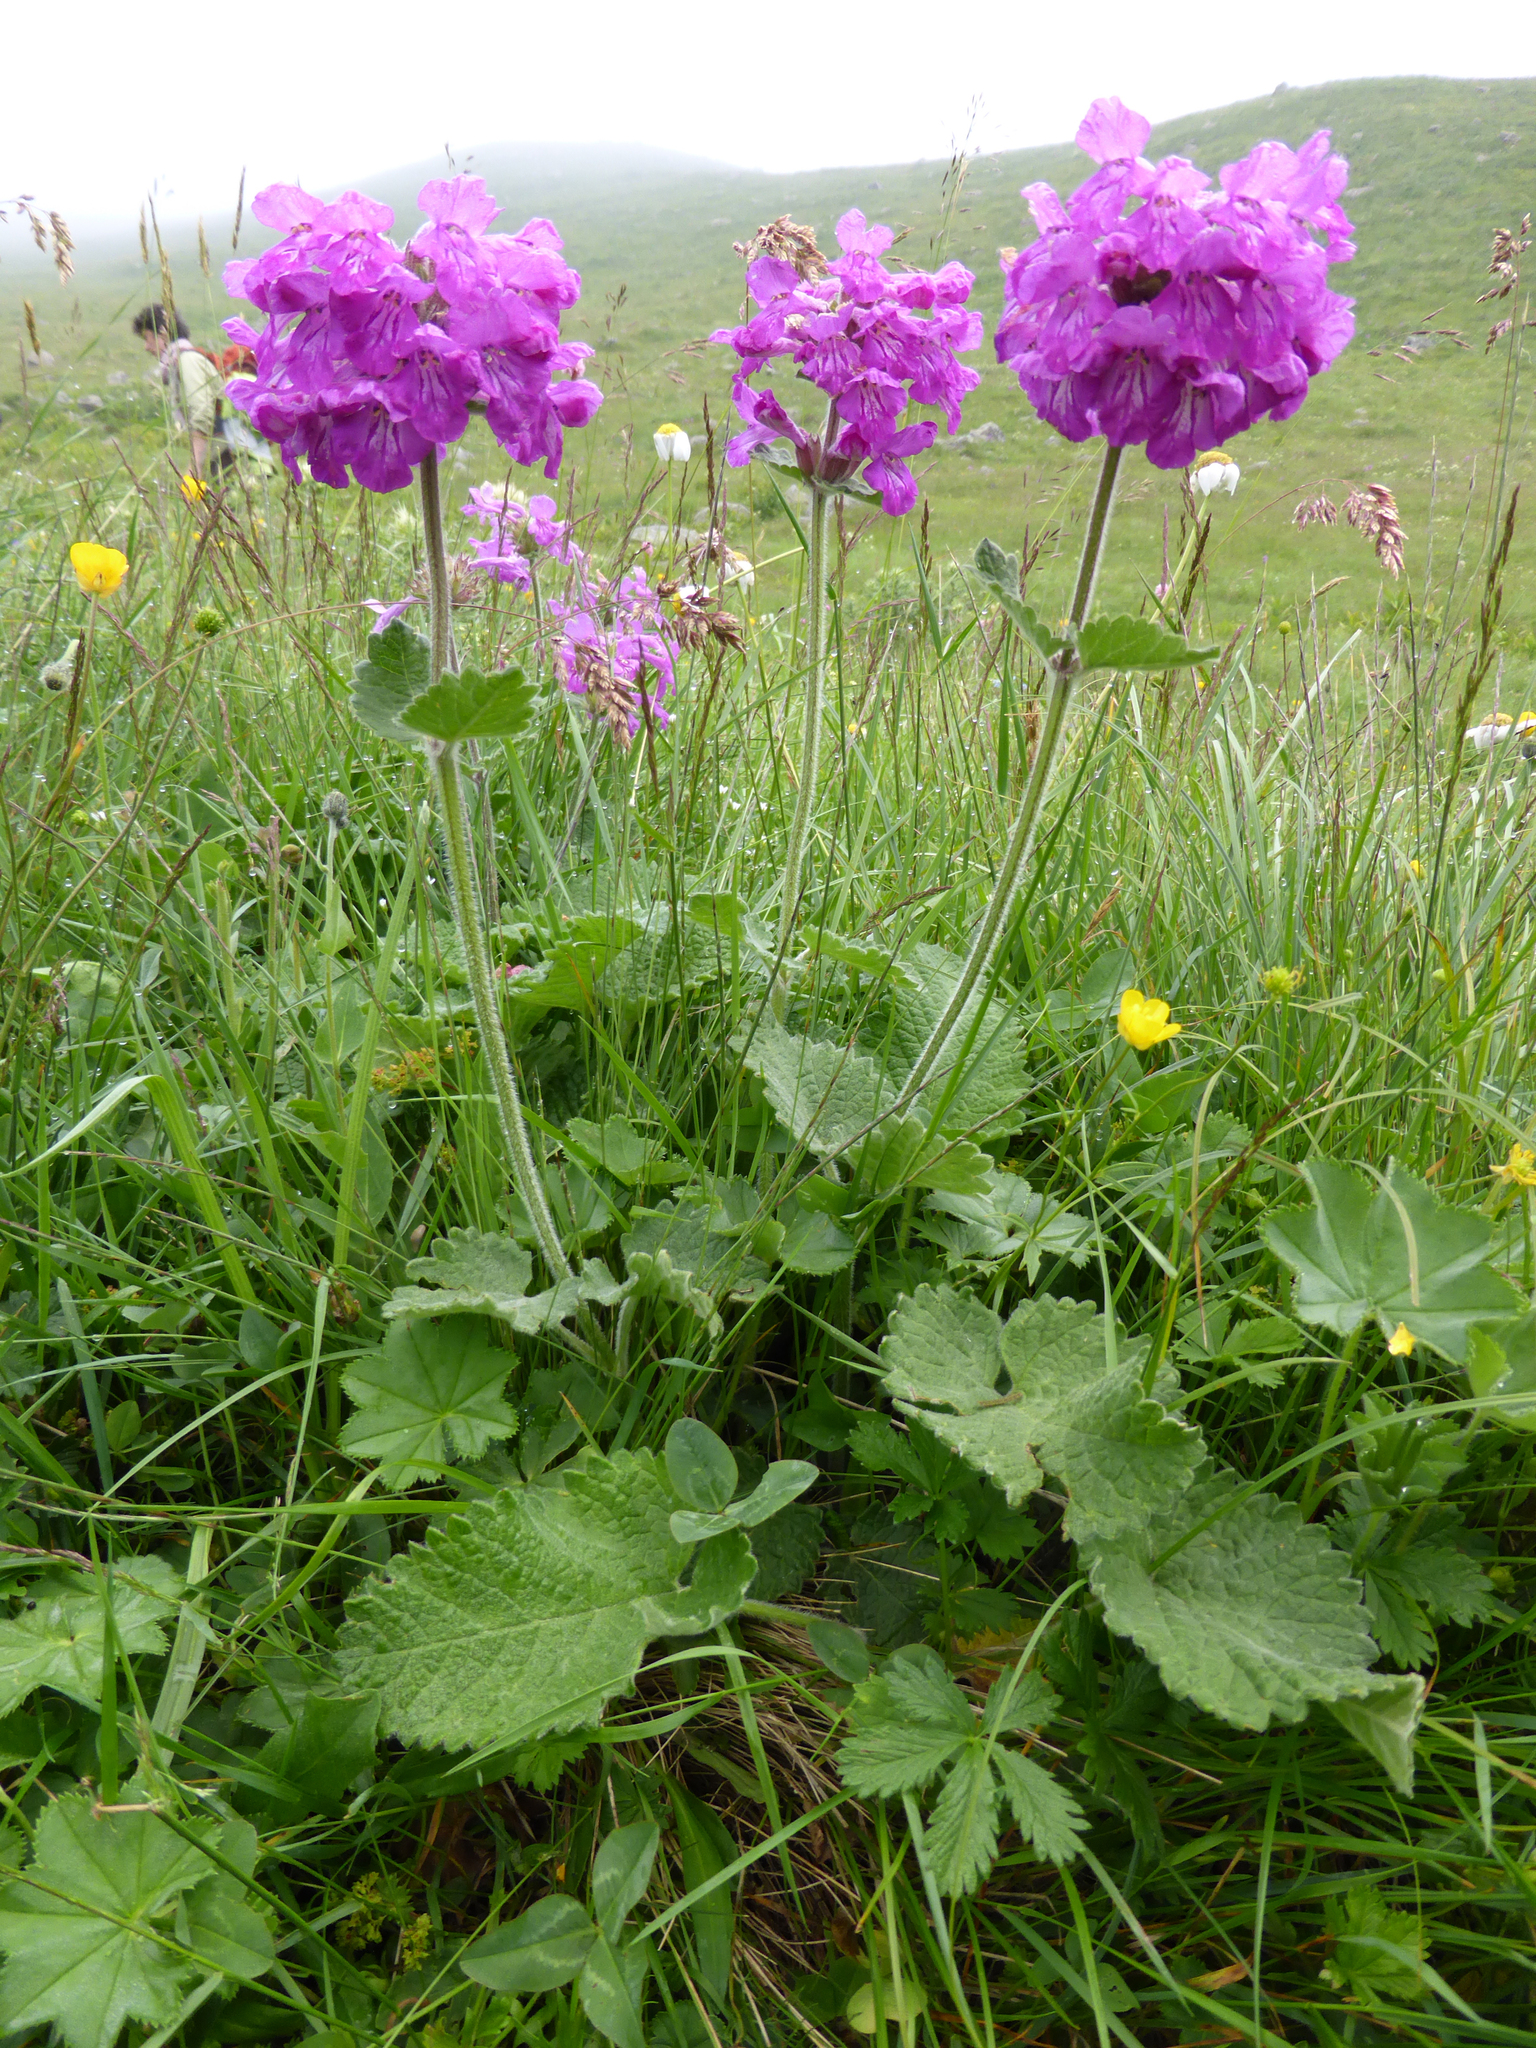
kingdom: Plantae
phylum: Tracheophyta
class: Magnoliopsida
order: Lamiales
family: Lamiaceae
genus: Betonica
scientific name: Betonica macrantha
